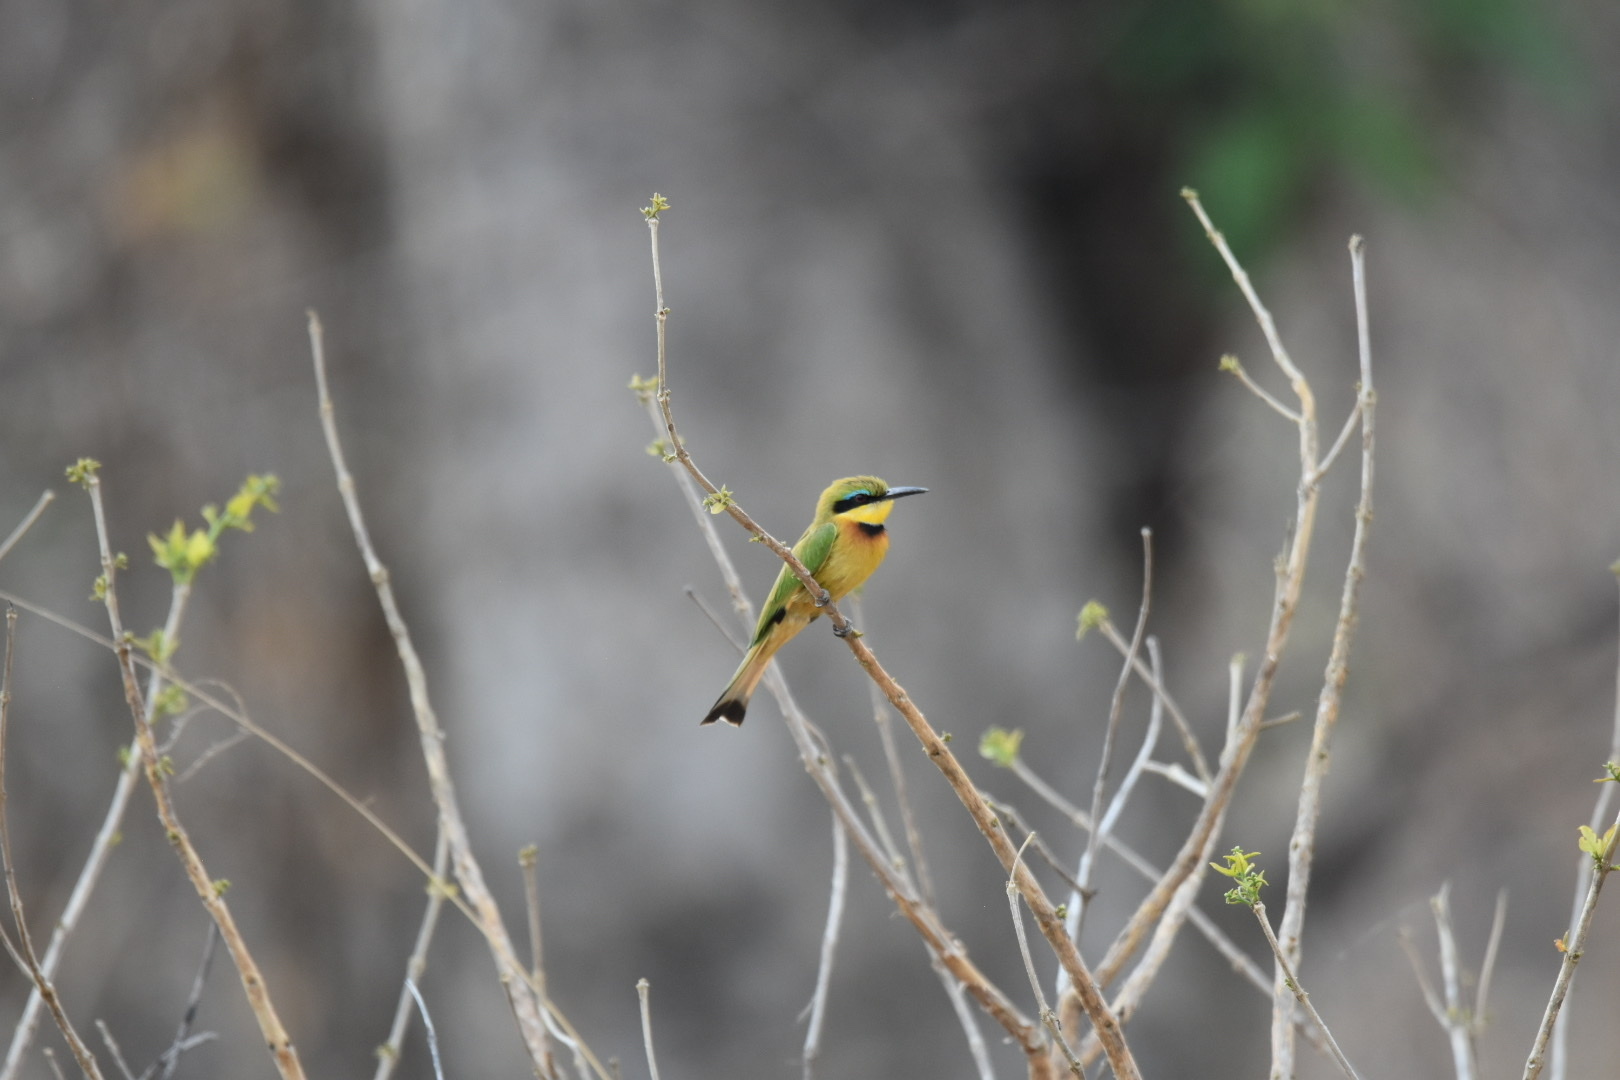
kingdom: Animalia
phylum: Chordata
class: Aves
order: Coraciiformes
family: Meropidae
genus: Merops
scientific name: Merops pusillus
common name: Little bee-eater
